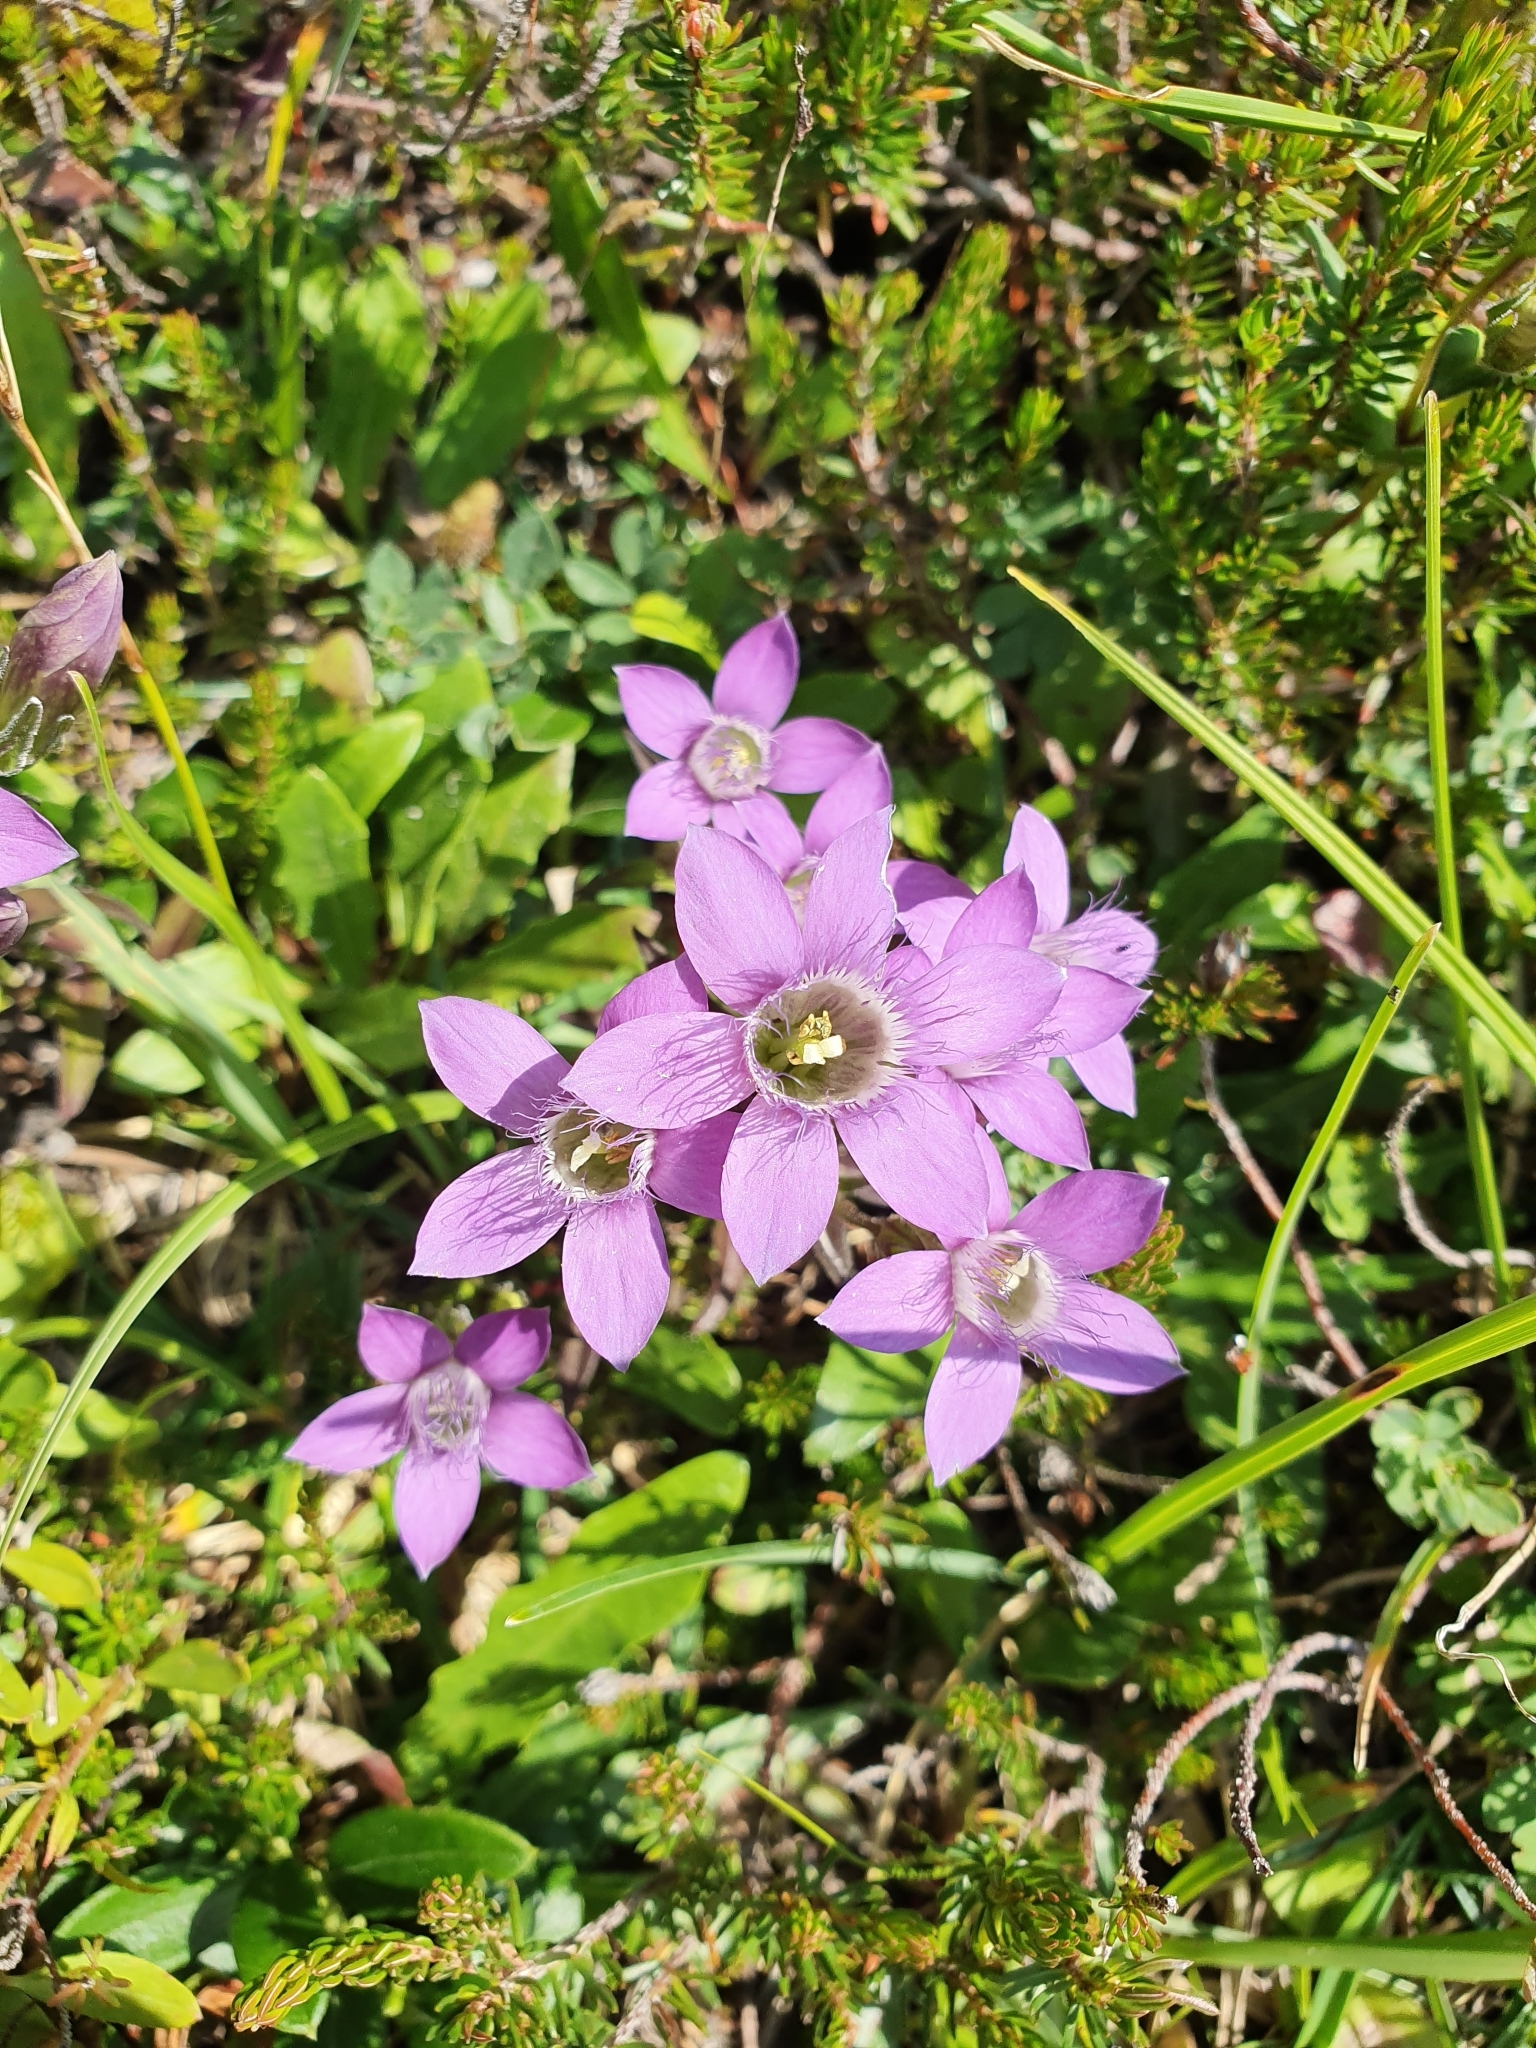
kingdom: Plantae
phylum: Tracheophyta
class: Magnoliopsida
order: Gentianales
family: Gentianaceae
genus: Gentianella
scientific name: Gentianella obtusifolia
